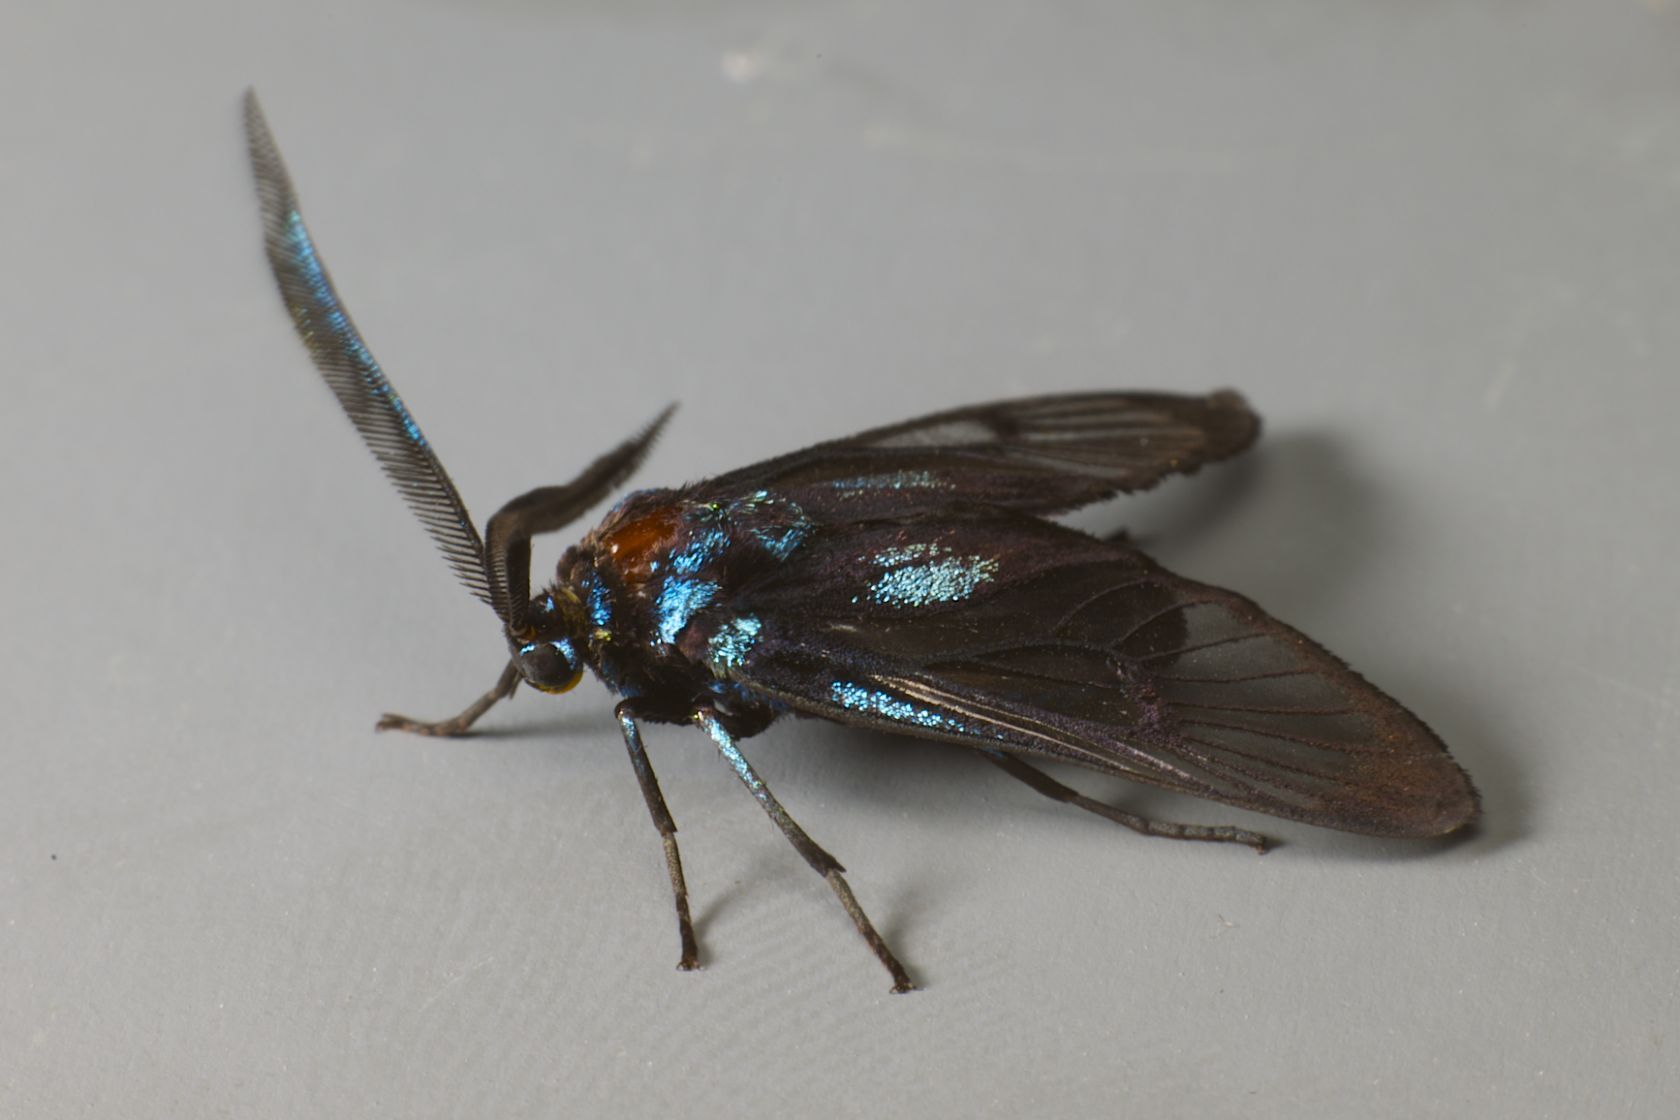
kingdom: Animalia
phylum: Arthropoda
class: Insecta
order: Lepidoptera
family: Zygaenidae
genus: Illiberis
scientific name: Illiberis
